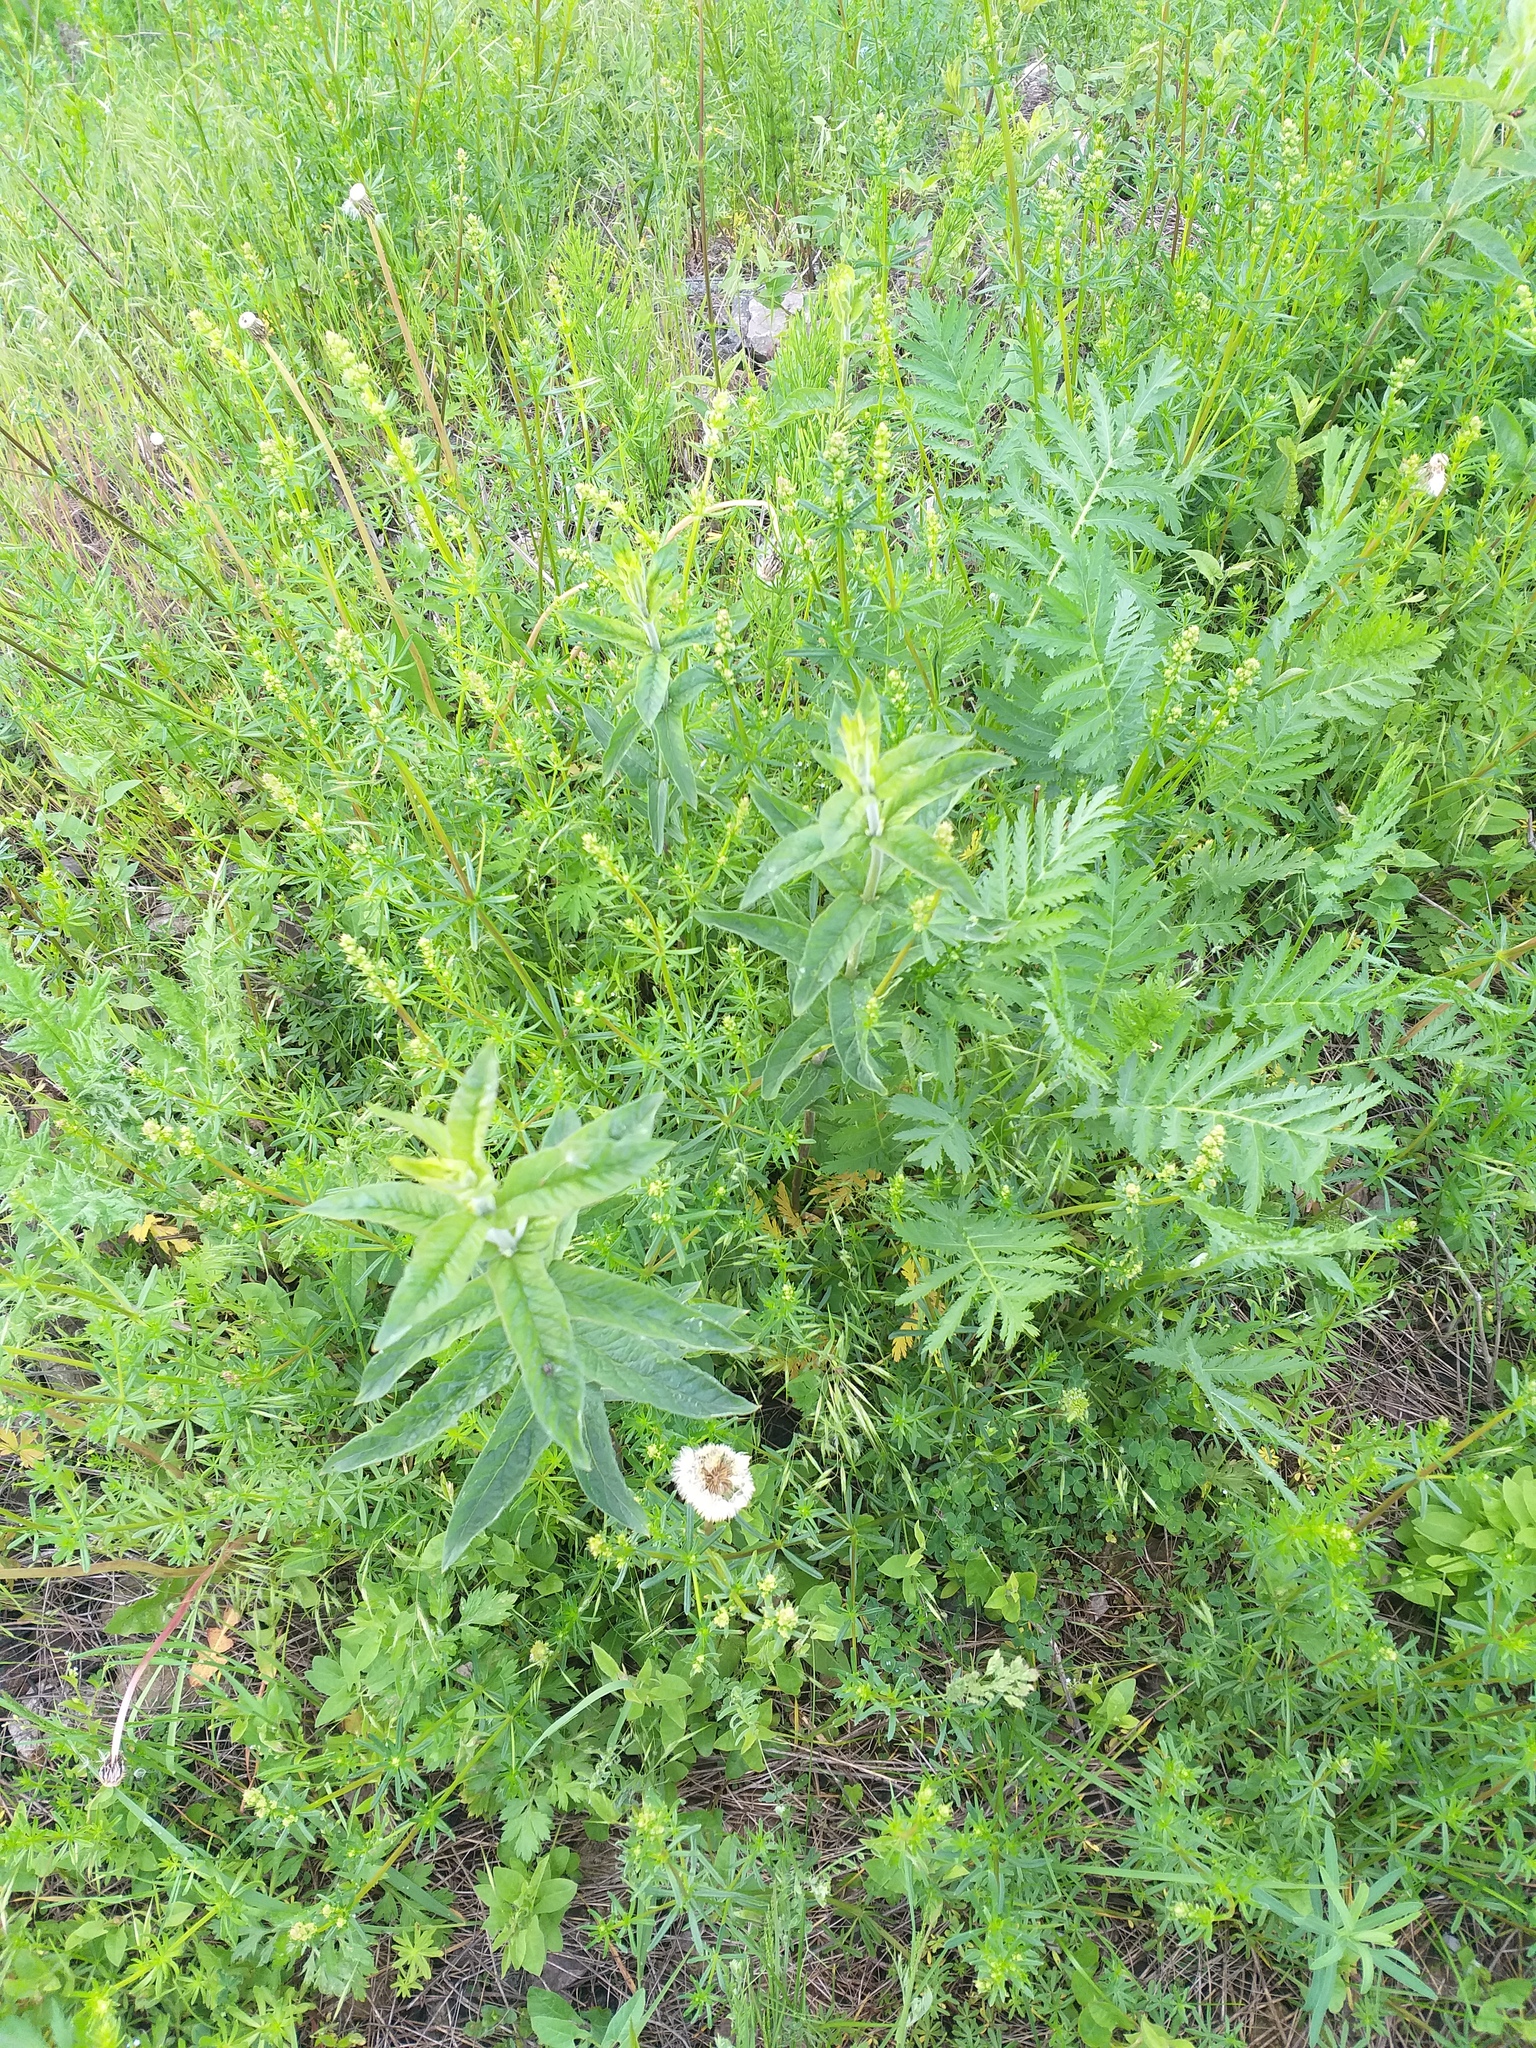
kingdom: Plantae
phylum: Tracheophyta
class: Magnoliopsida
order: Ericales
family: Primulaceae
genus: Lysimachia
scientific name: Lysimachia vulgaris
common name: Yellow loosestrife
